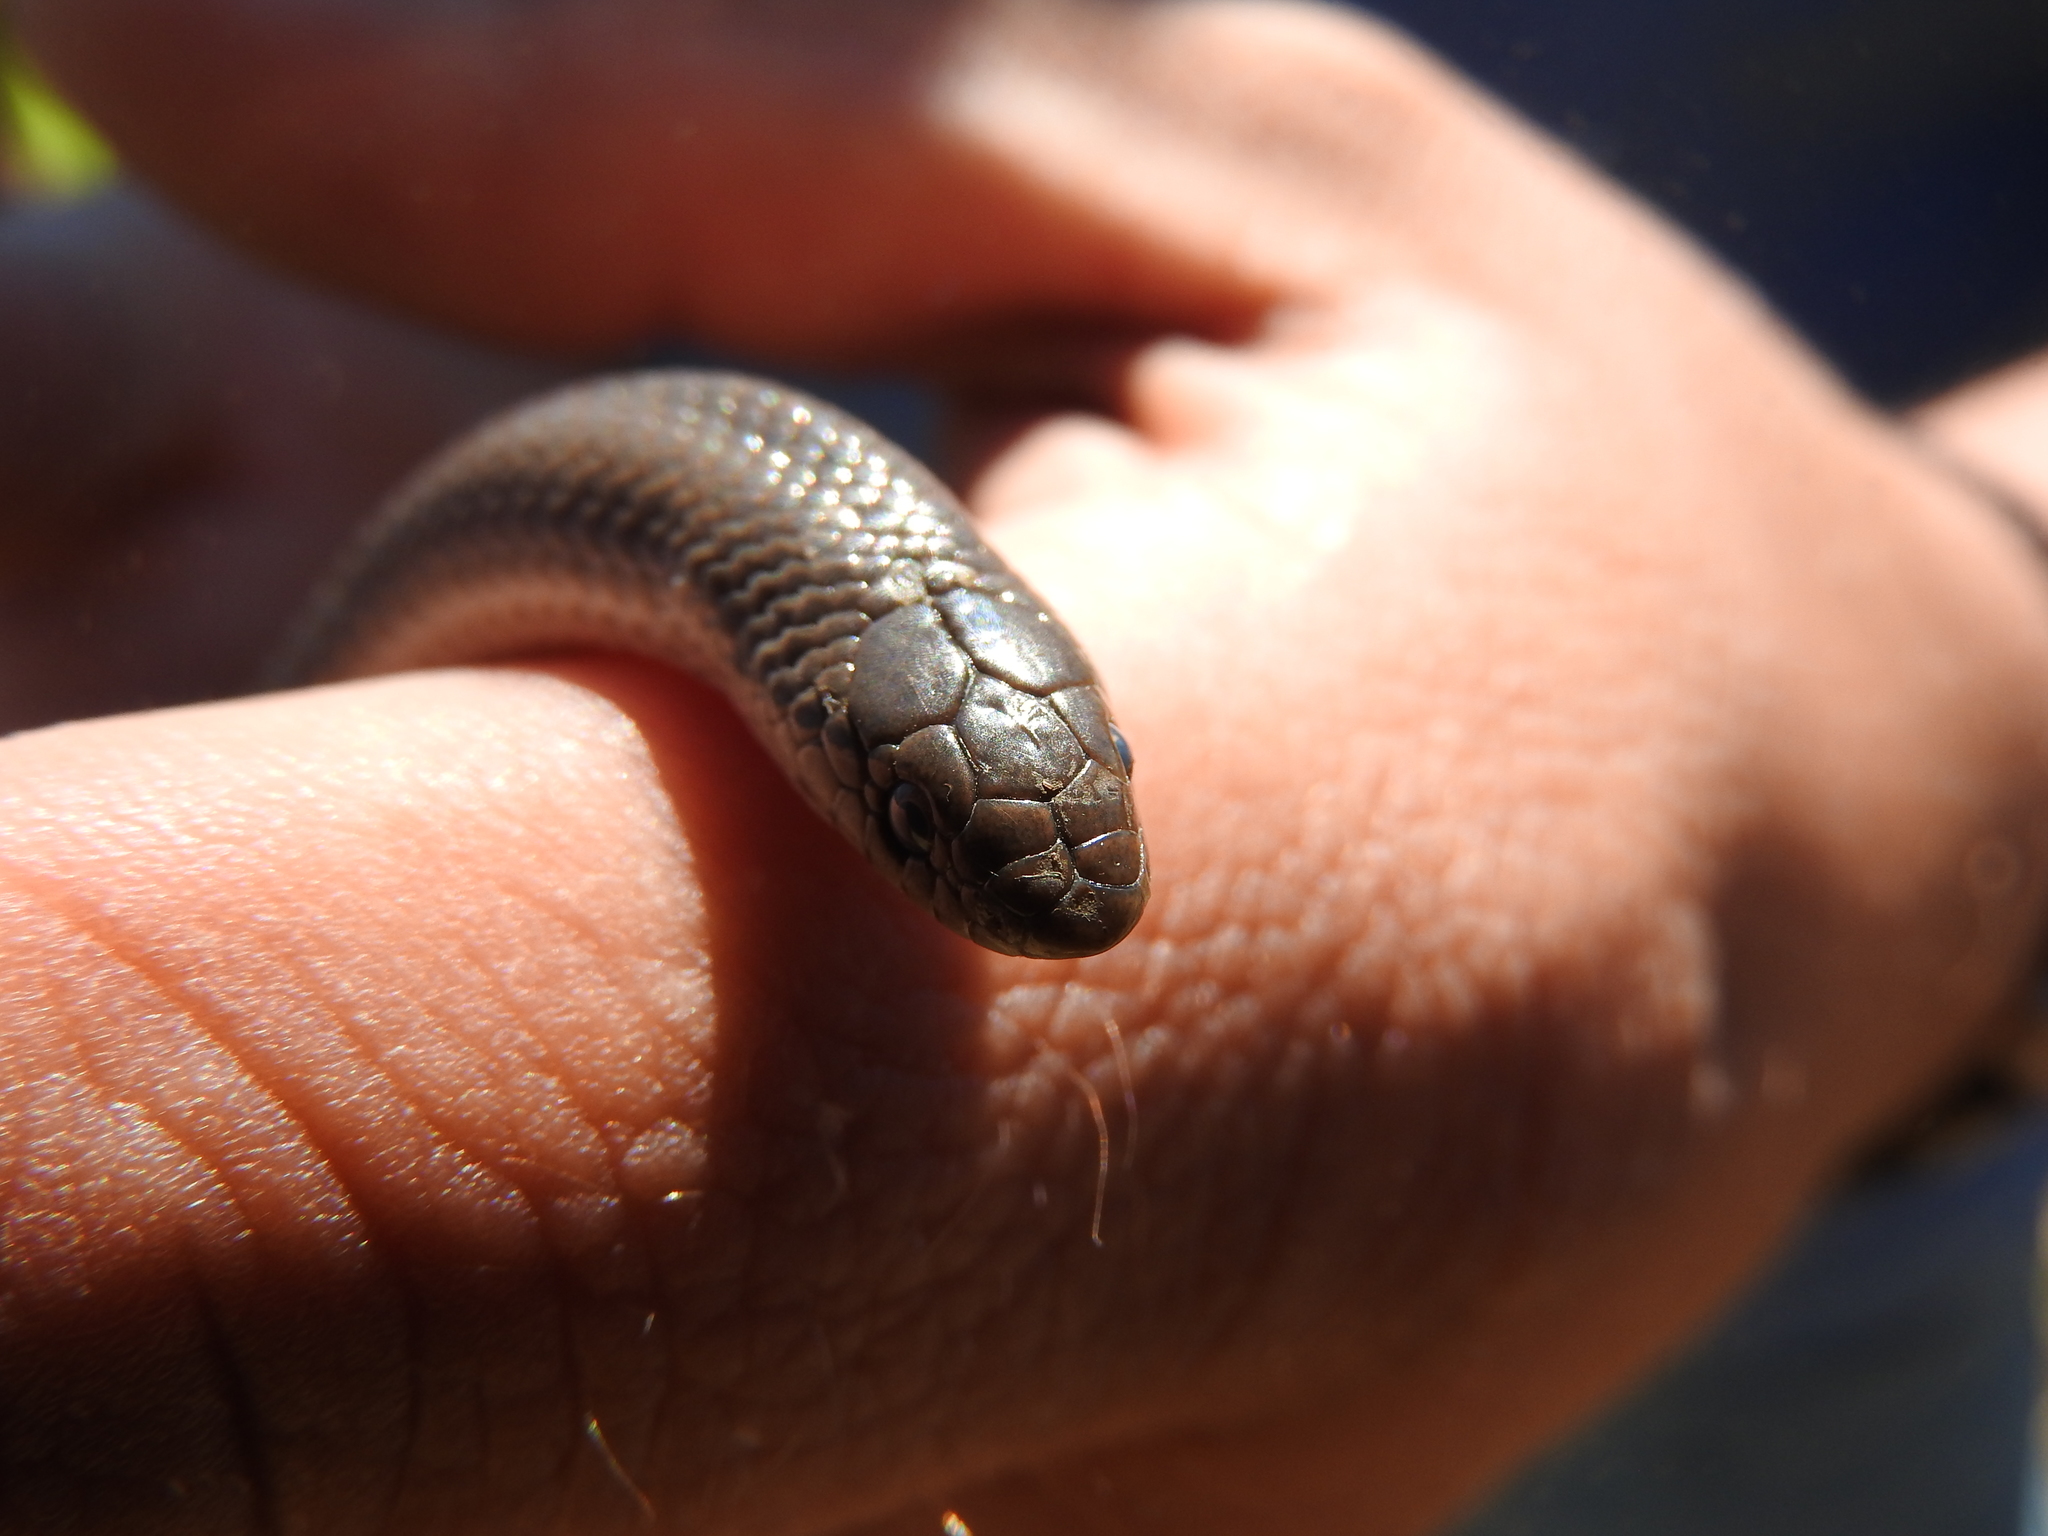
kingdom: Animalia
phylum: Chordata
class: Squamata
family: Colubridae
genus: Conopsis
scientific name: Conopsis lineata
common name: Lined tolucan earthsnake
